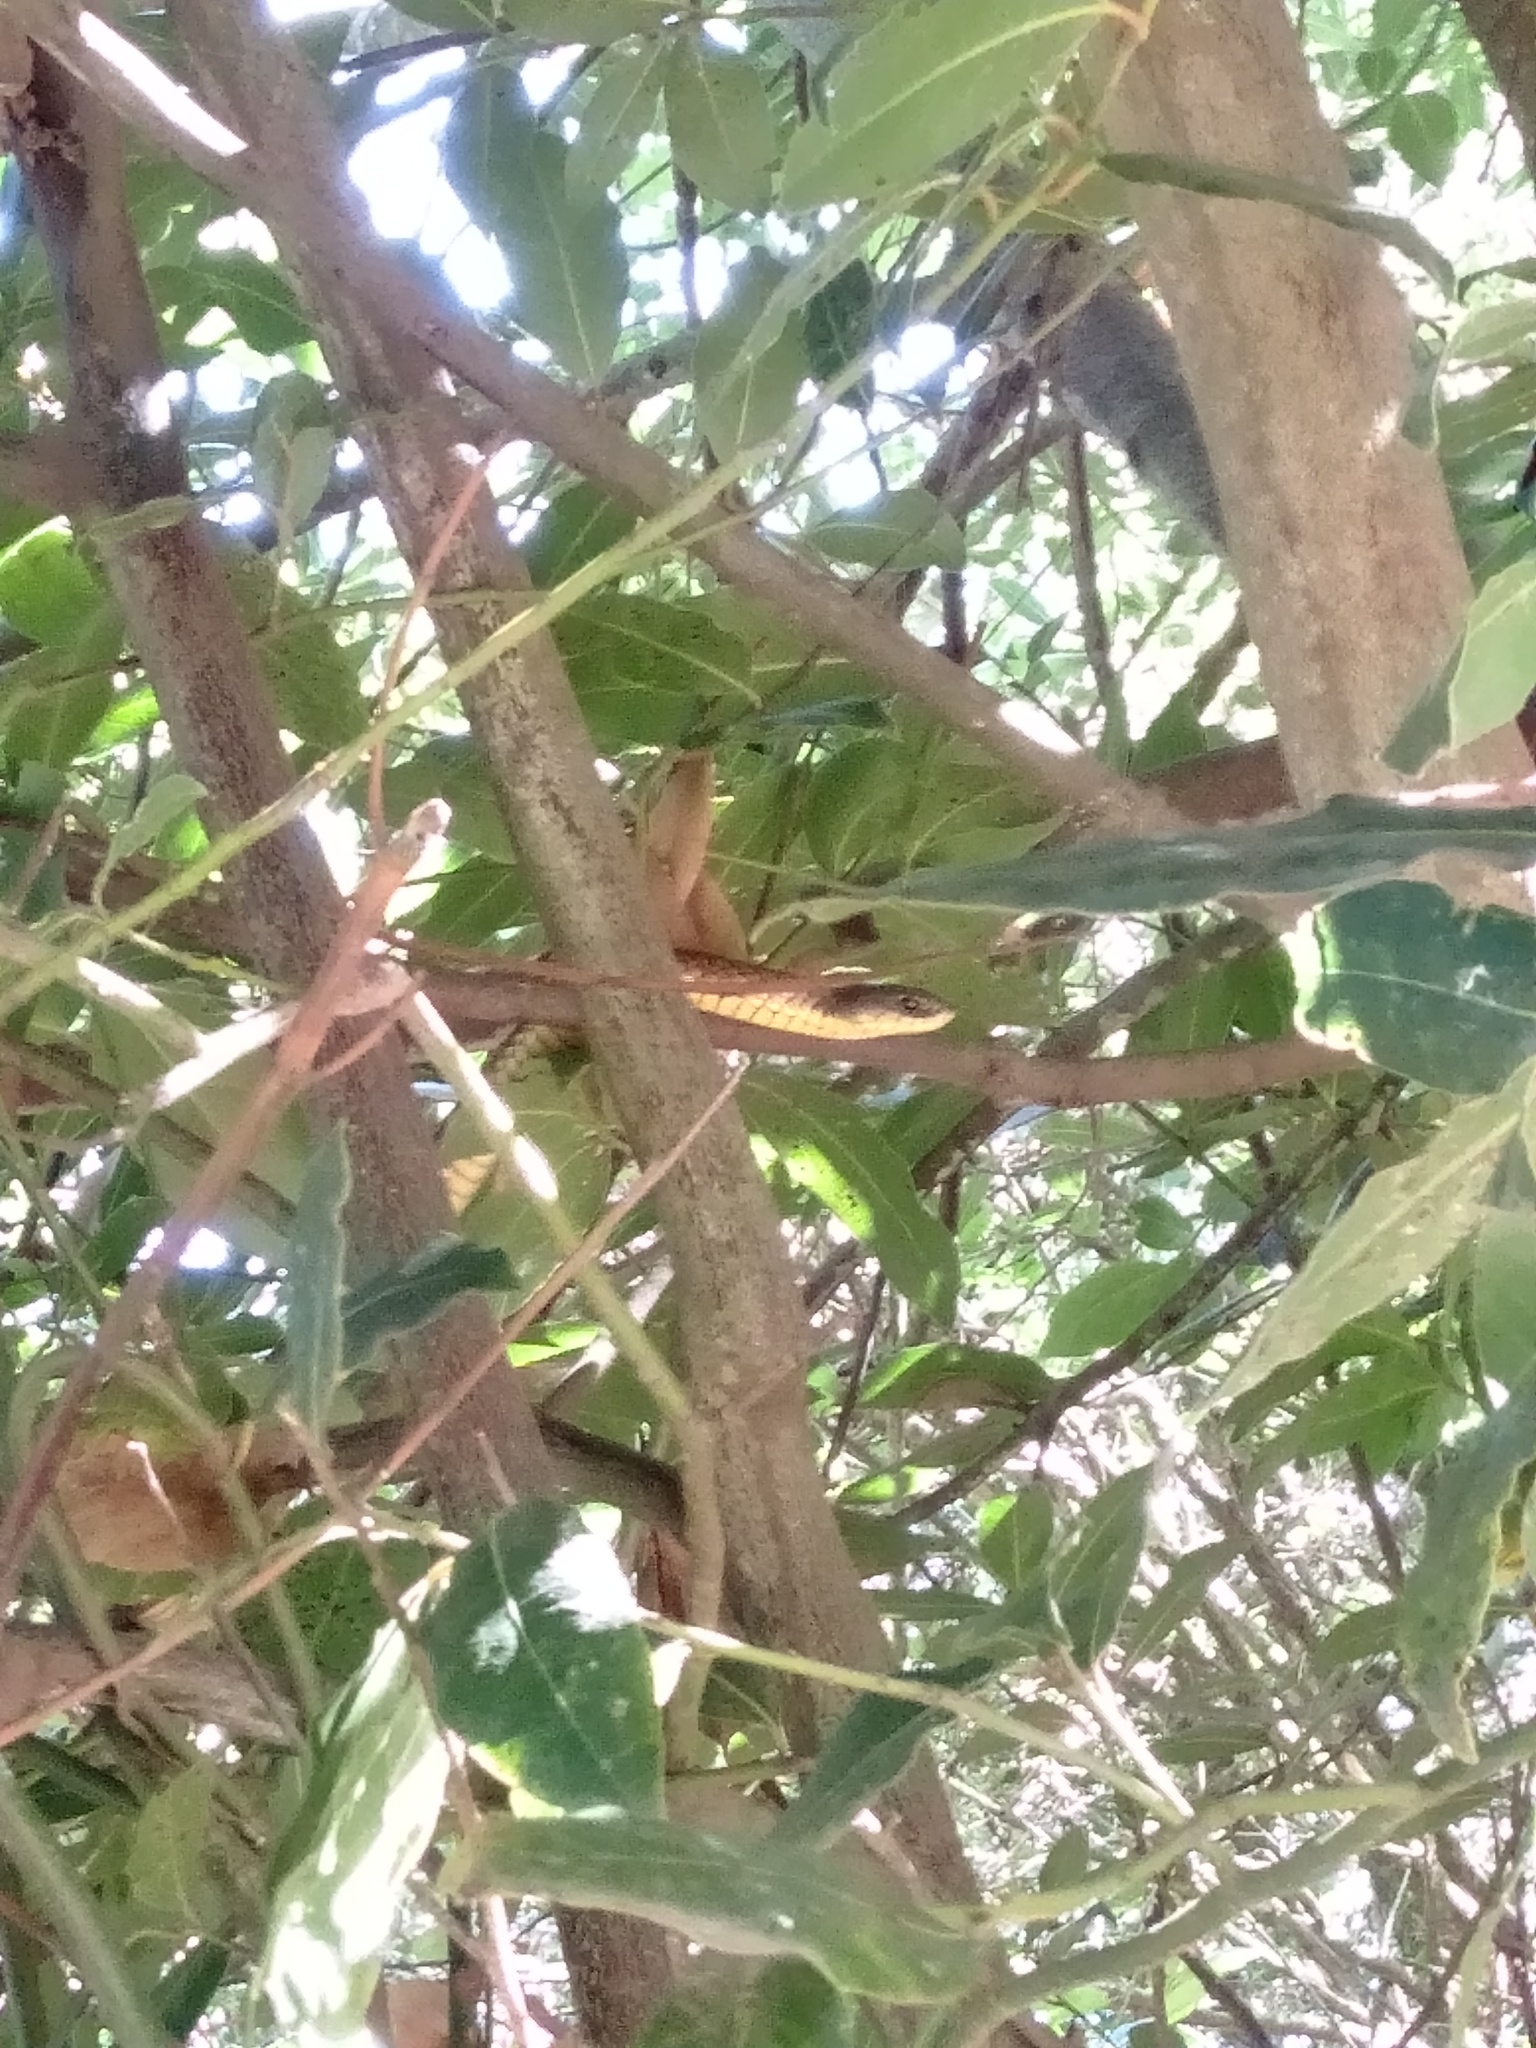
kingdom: Animalia
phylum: Chordata
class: Squamata
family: Elapidae
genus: Notechis
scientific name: Notechis scutatus
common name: Mainland tiger snake
